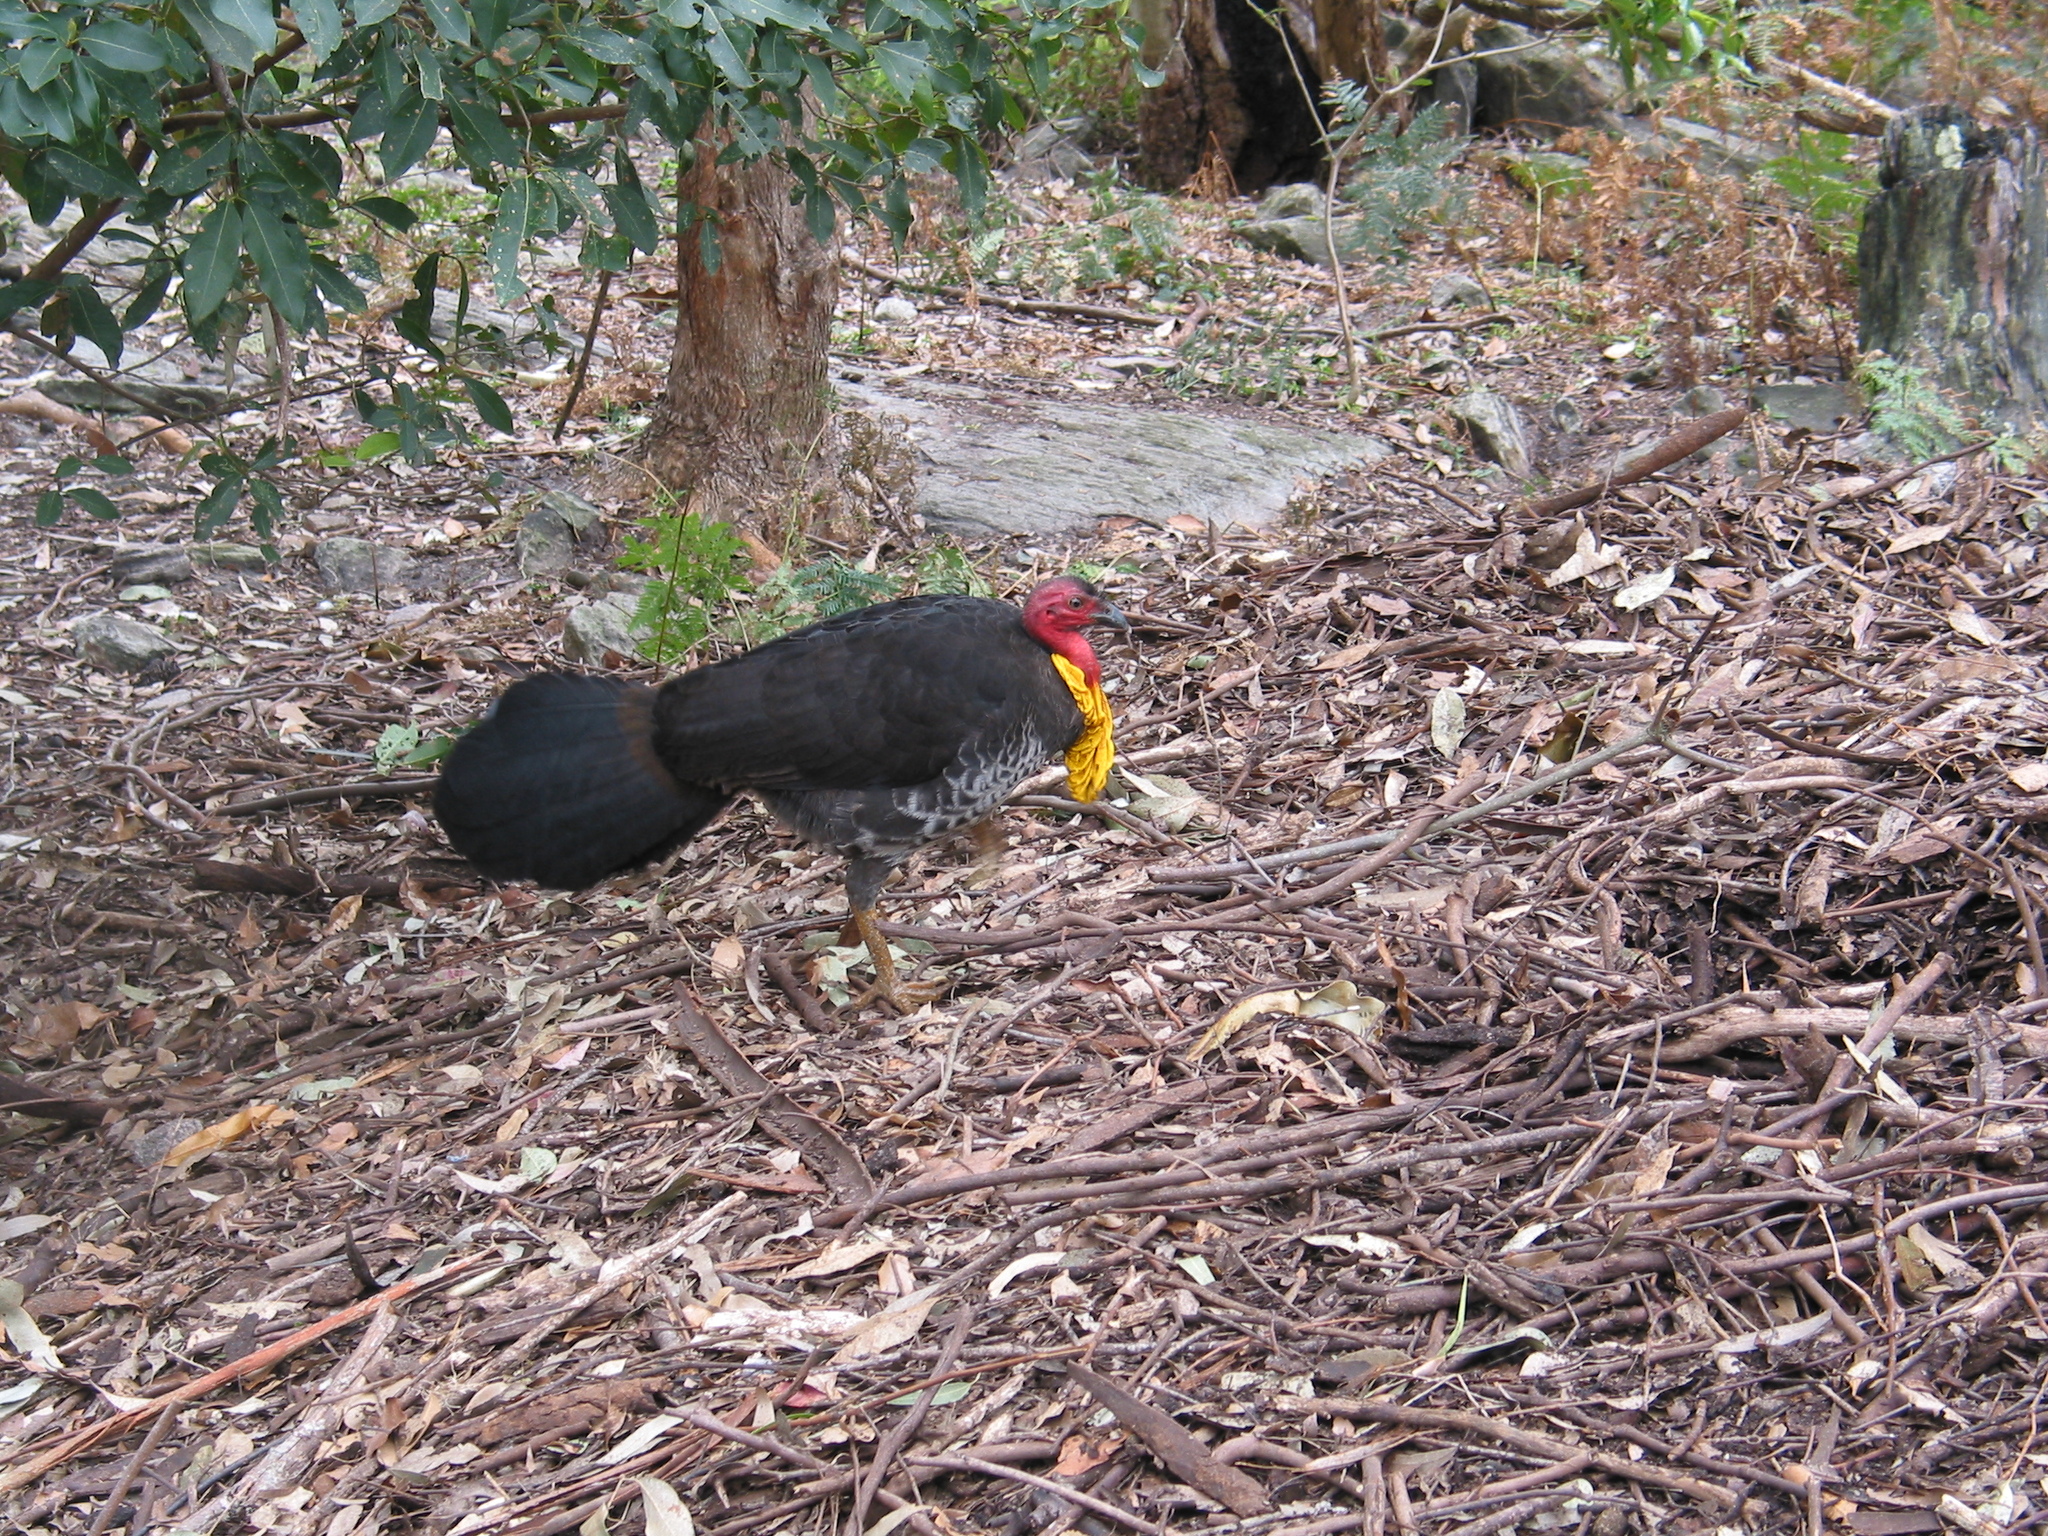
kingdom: Animalia
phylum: Chordata
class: Aves
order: Galliformes
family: Megapodiidae
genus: Alectura
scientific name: Alectura lathami
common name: Australian brushturkey
